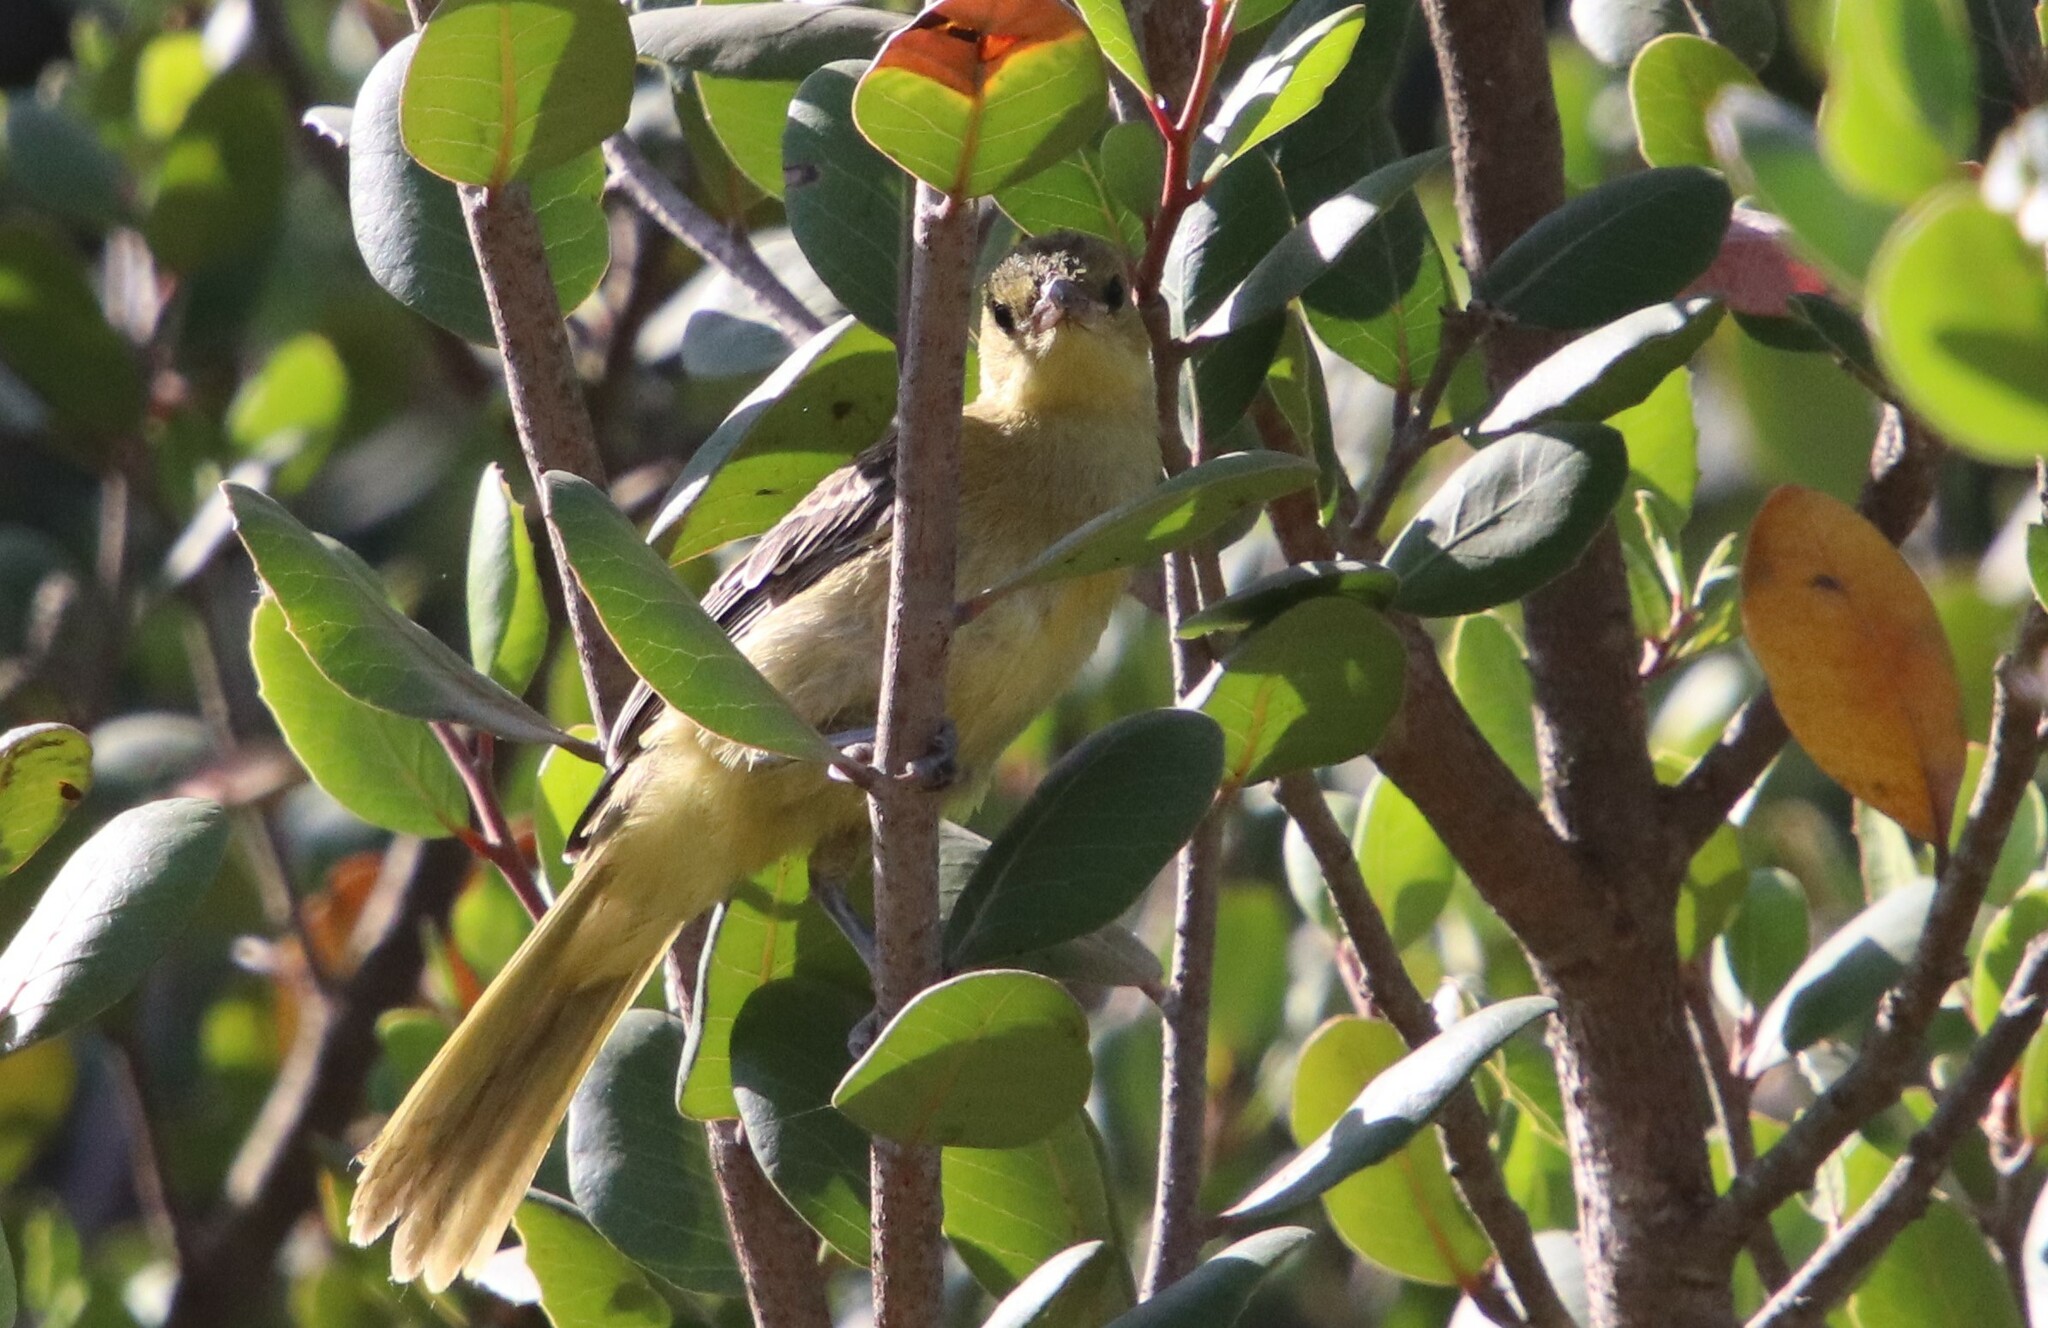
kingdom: Animalia
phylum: Chordata
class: Aves
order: Passeriformes
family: Icteridae
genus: Icterus
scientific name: Icterus cucullatus
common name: Hooded oriole
